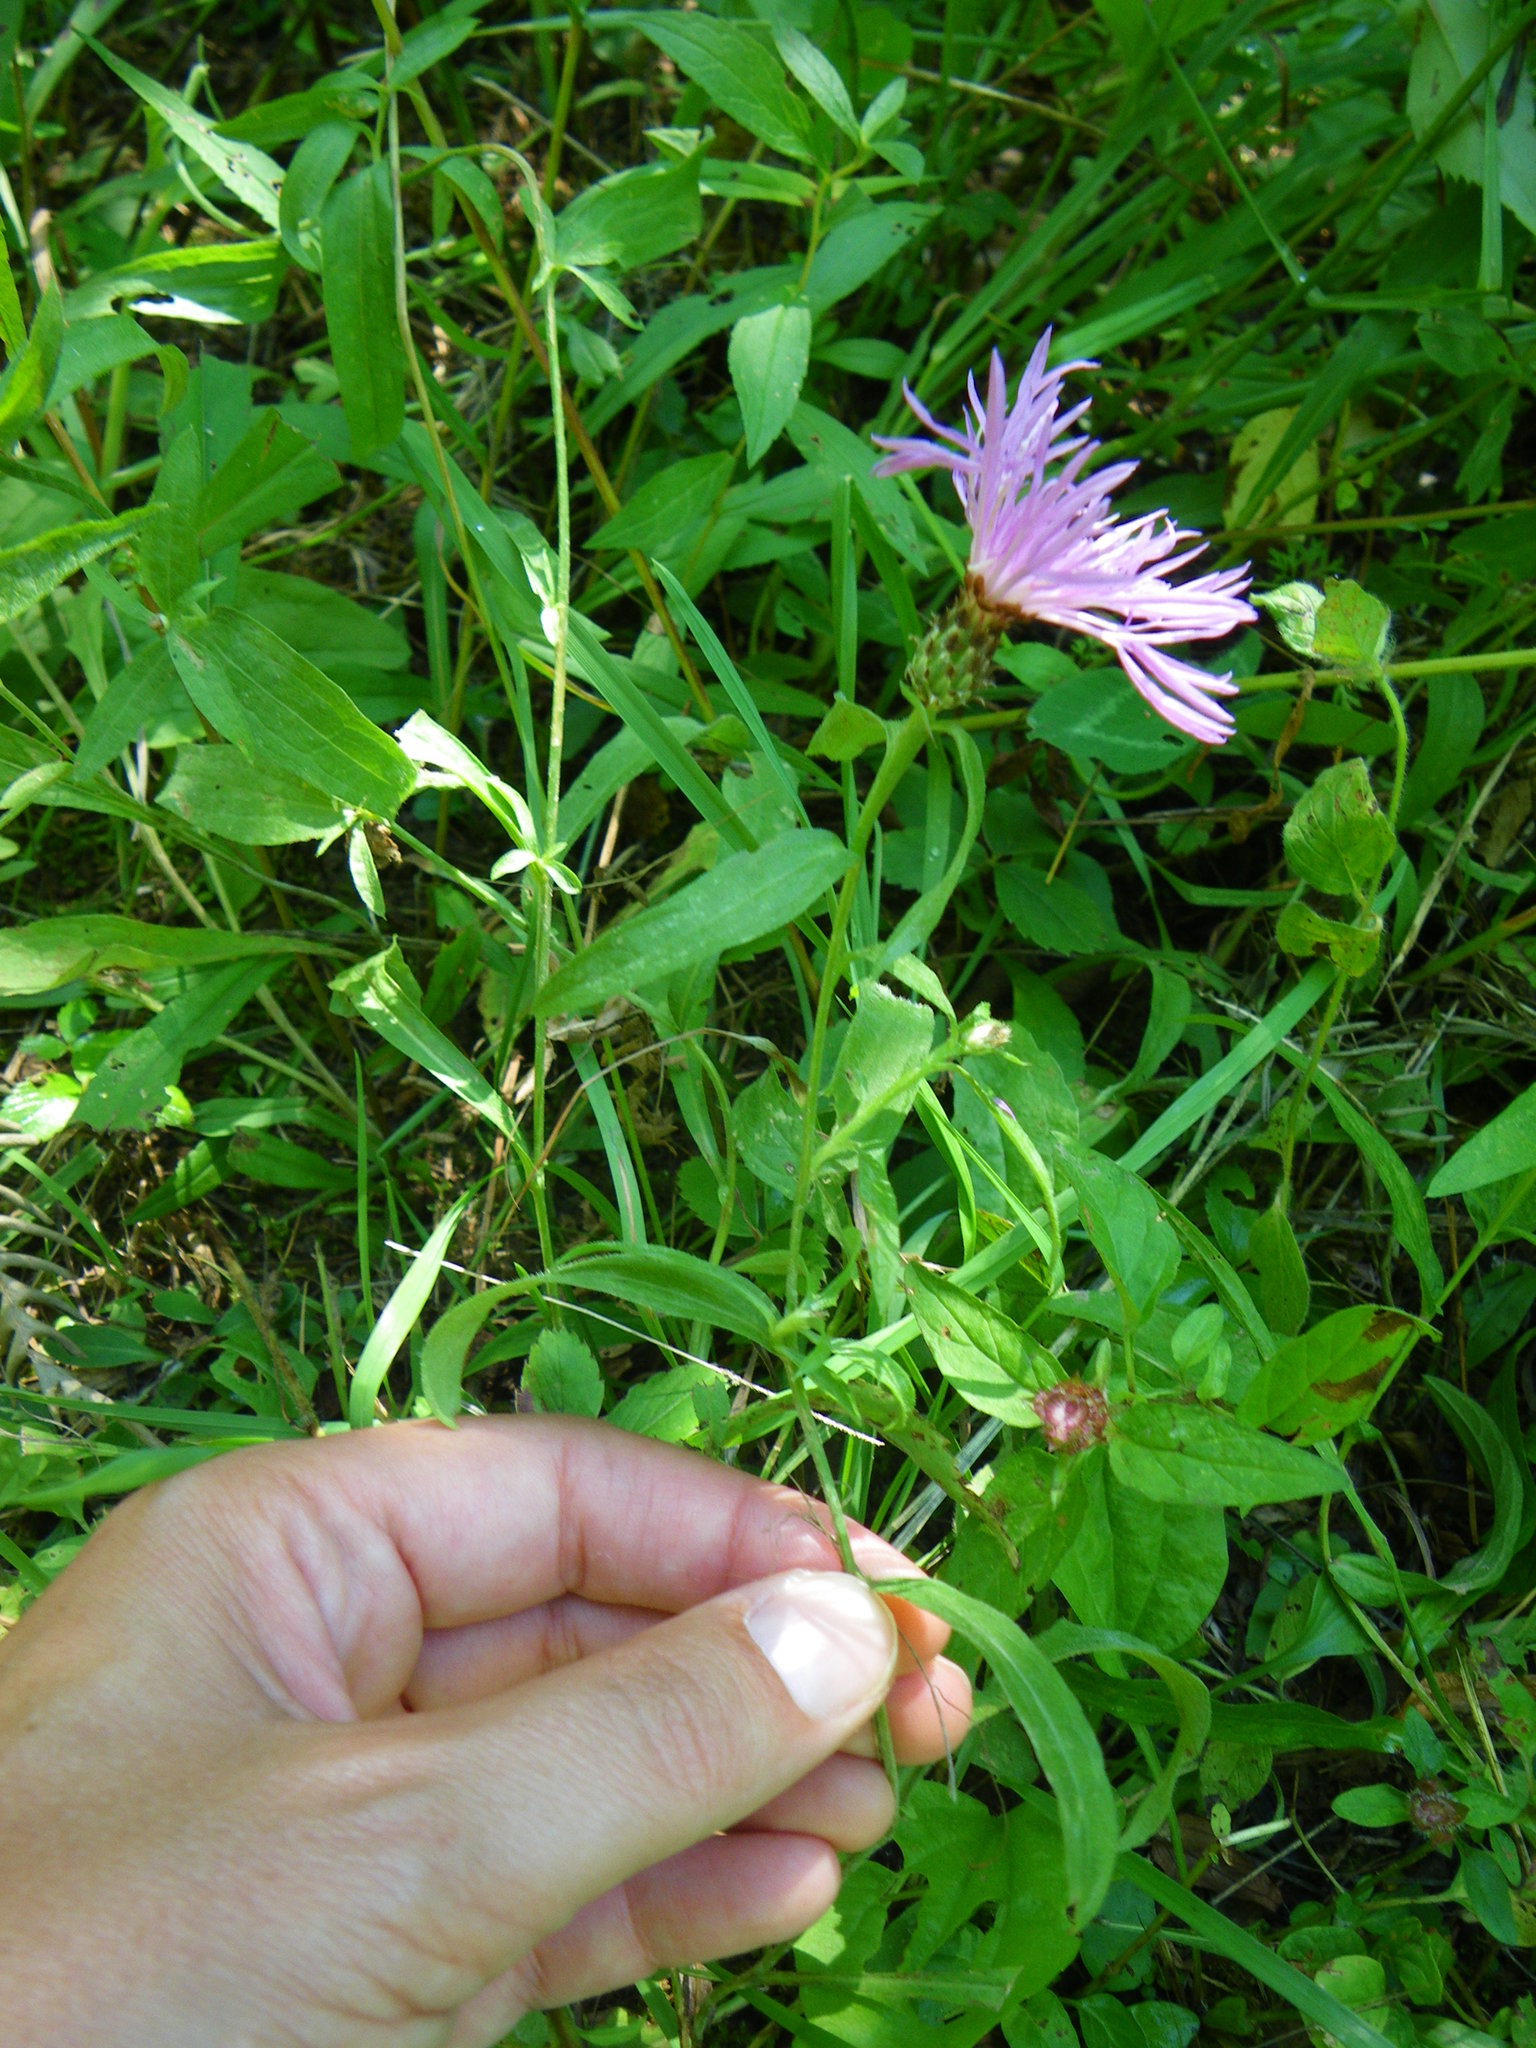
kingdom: Plantae
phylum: Tracheophyta
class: Magnoliopsida
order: Asterales
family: Asteraceae
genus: Centaurea
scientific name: Centaurea nigrescens
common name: Tyrol knapweed
